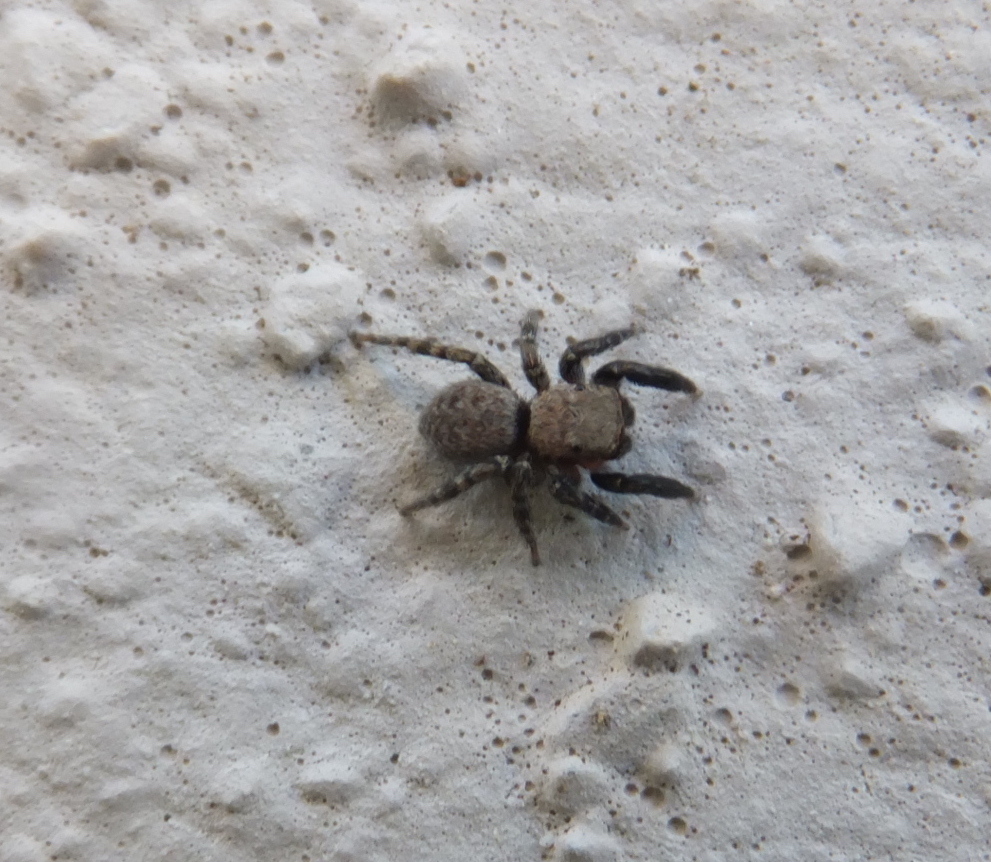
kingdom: Animalia
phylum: Arthropoda
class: Arachnida
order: Araneae
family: Salticidae
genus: Euophrys
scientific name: Euophrys rufibarbis
